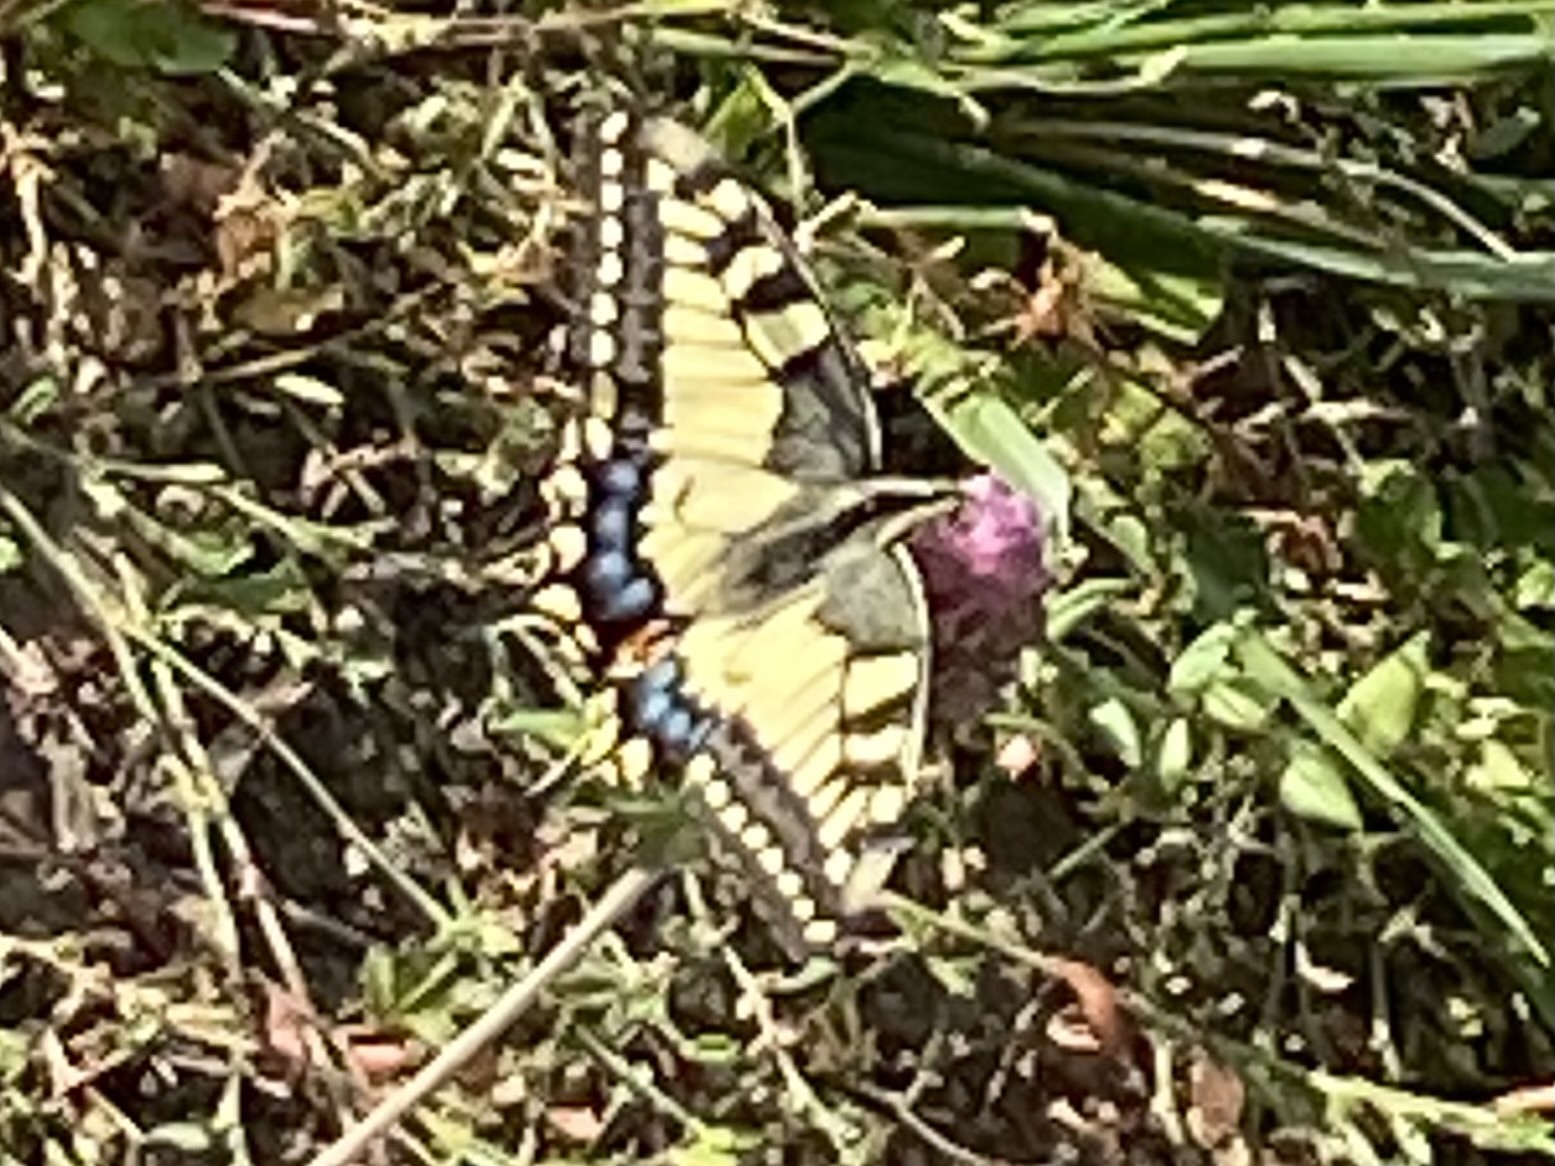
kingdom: Animalia
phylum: Arthropoda
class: Insecta
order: Lepidoptera
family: Papilionidae
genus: Papilio
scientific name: Papilio machaon
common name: Swallowtail
